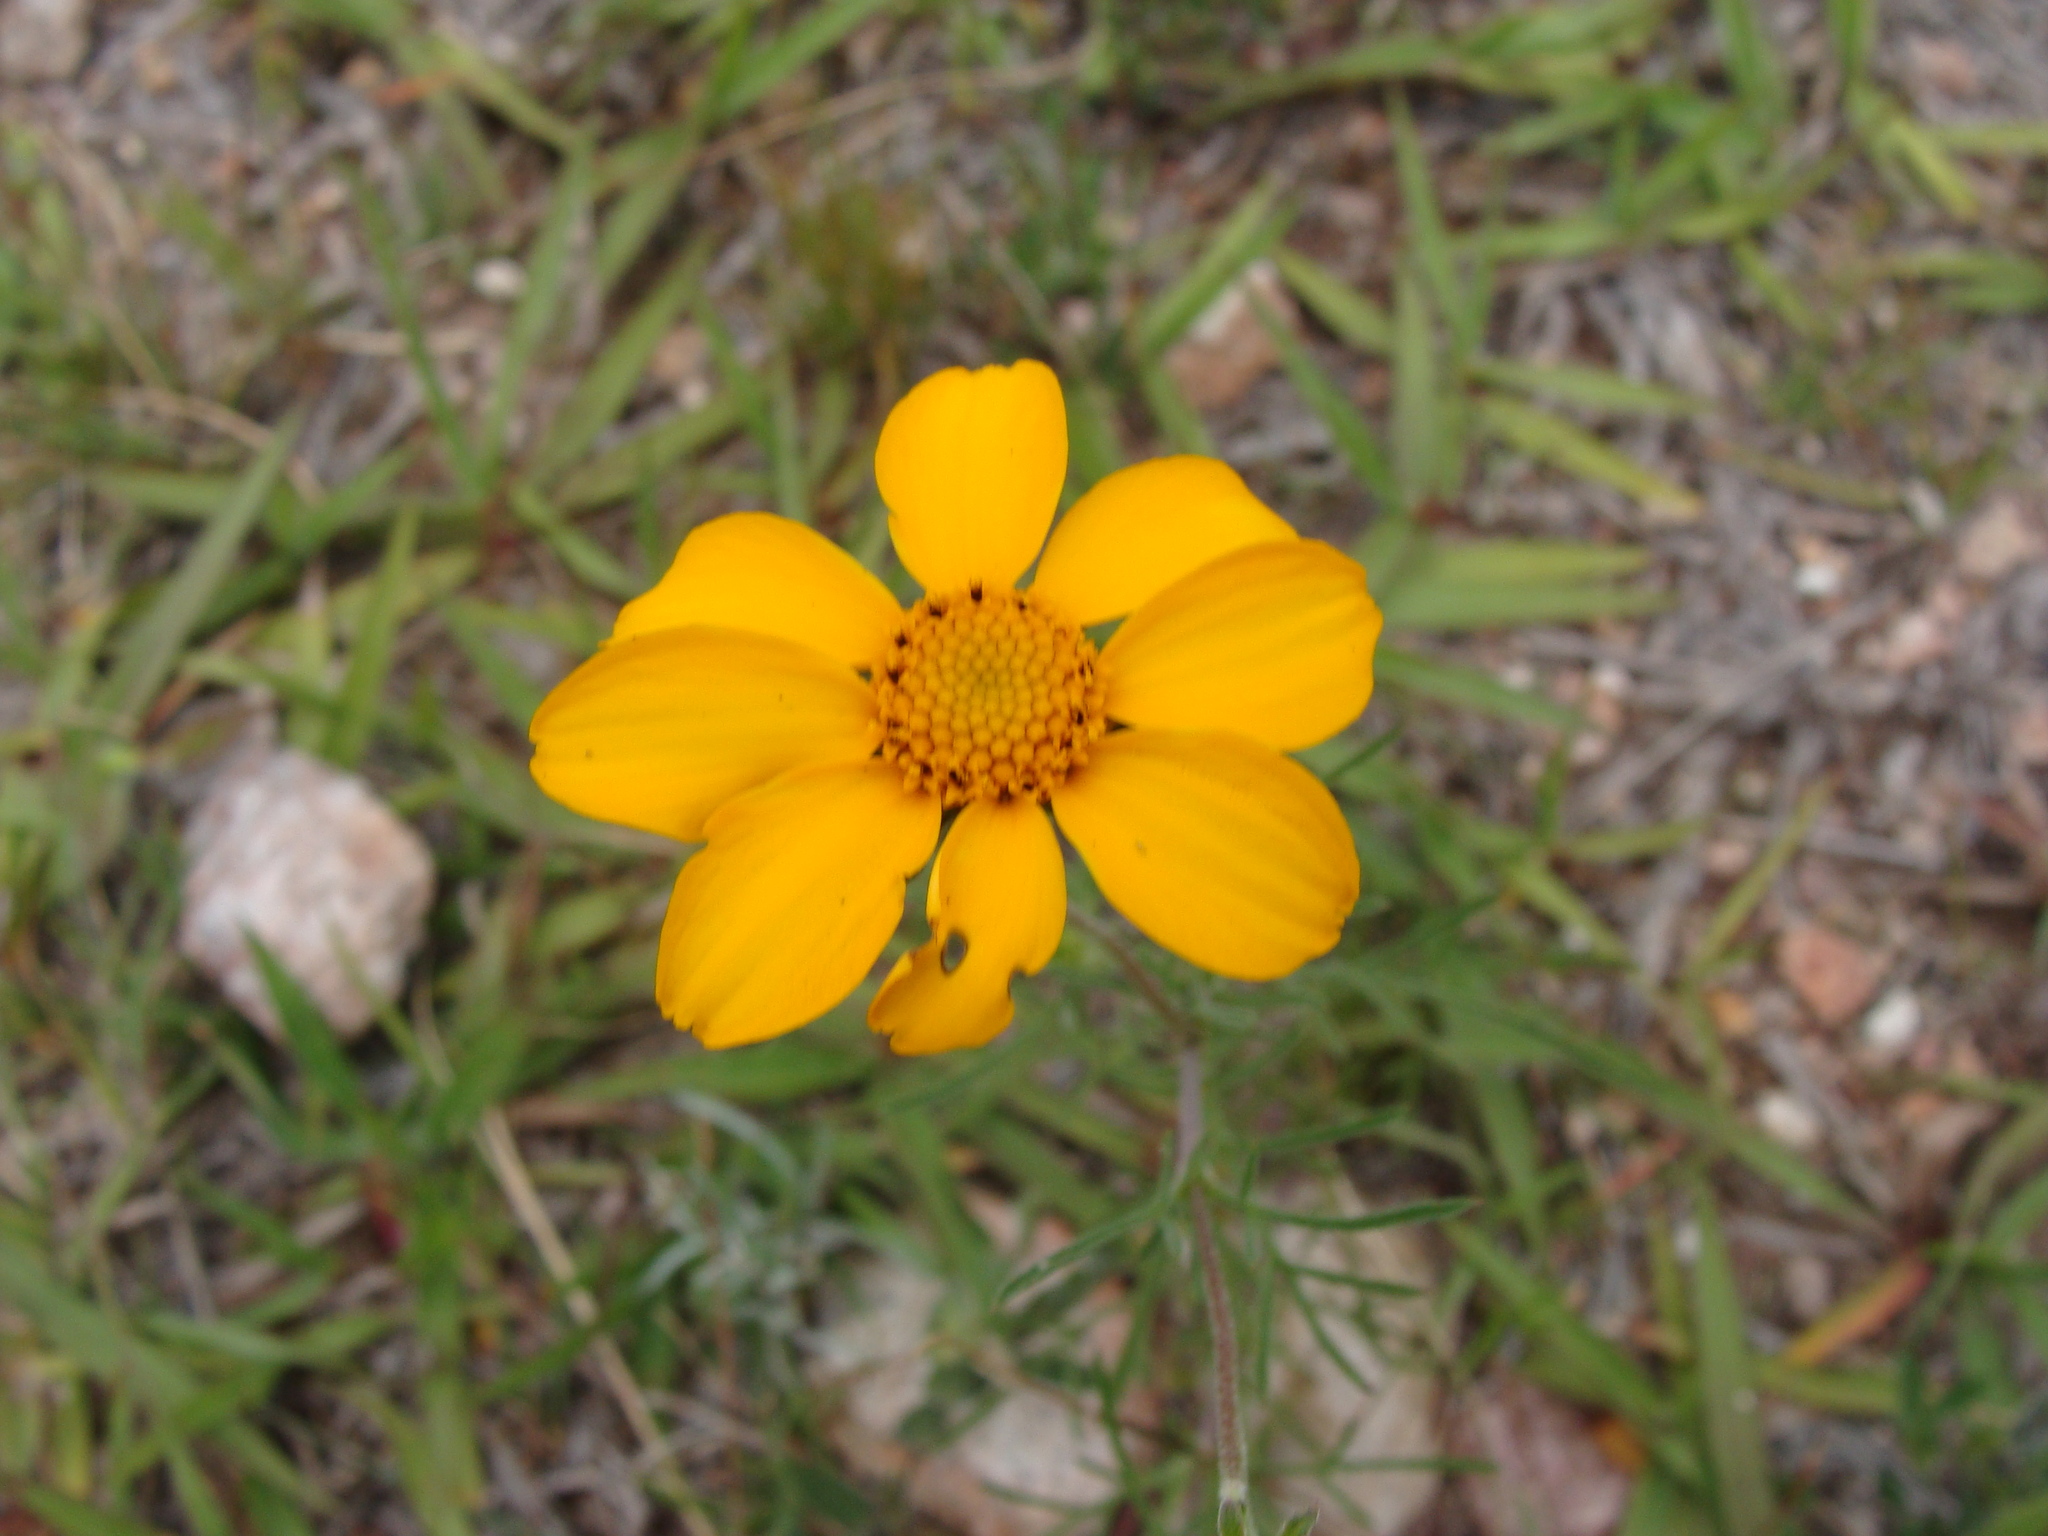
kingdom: Plantae
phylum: Tracheophyta
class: Magnoliopsida
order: Asterales
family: Asteraceae
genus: Dyssodia
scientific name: Dyssodia pinnata
